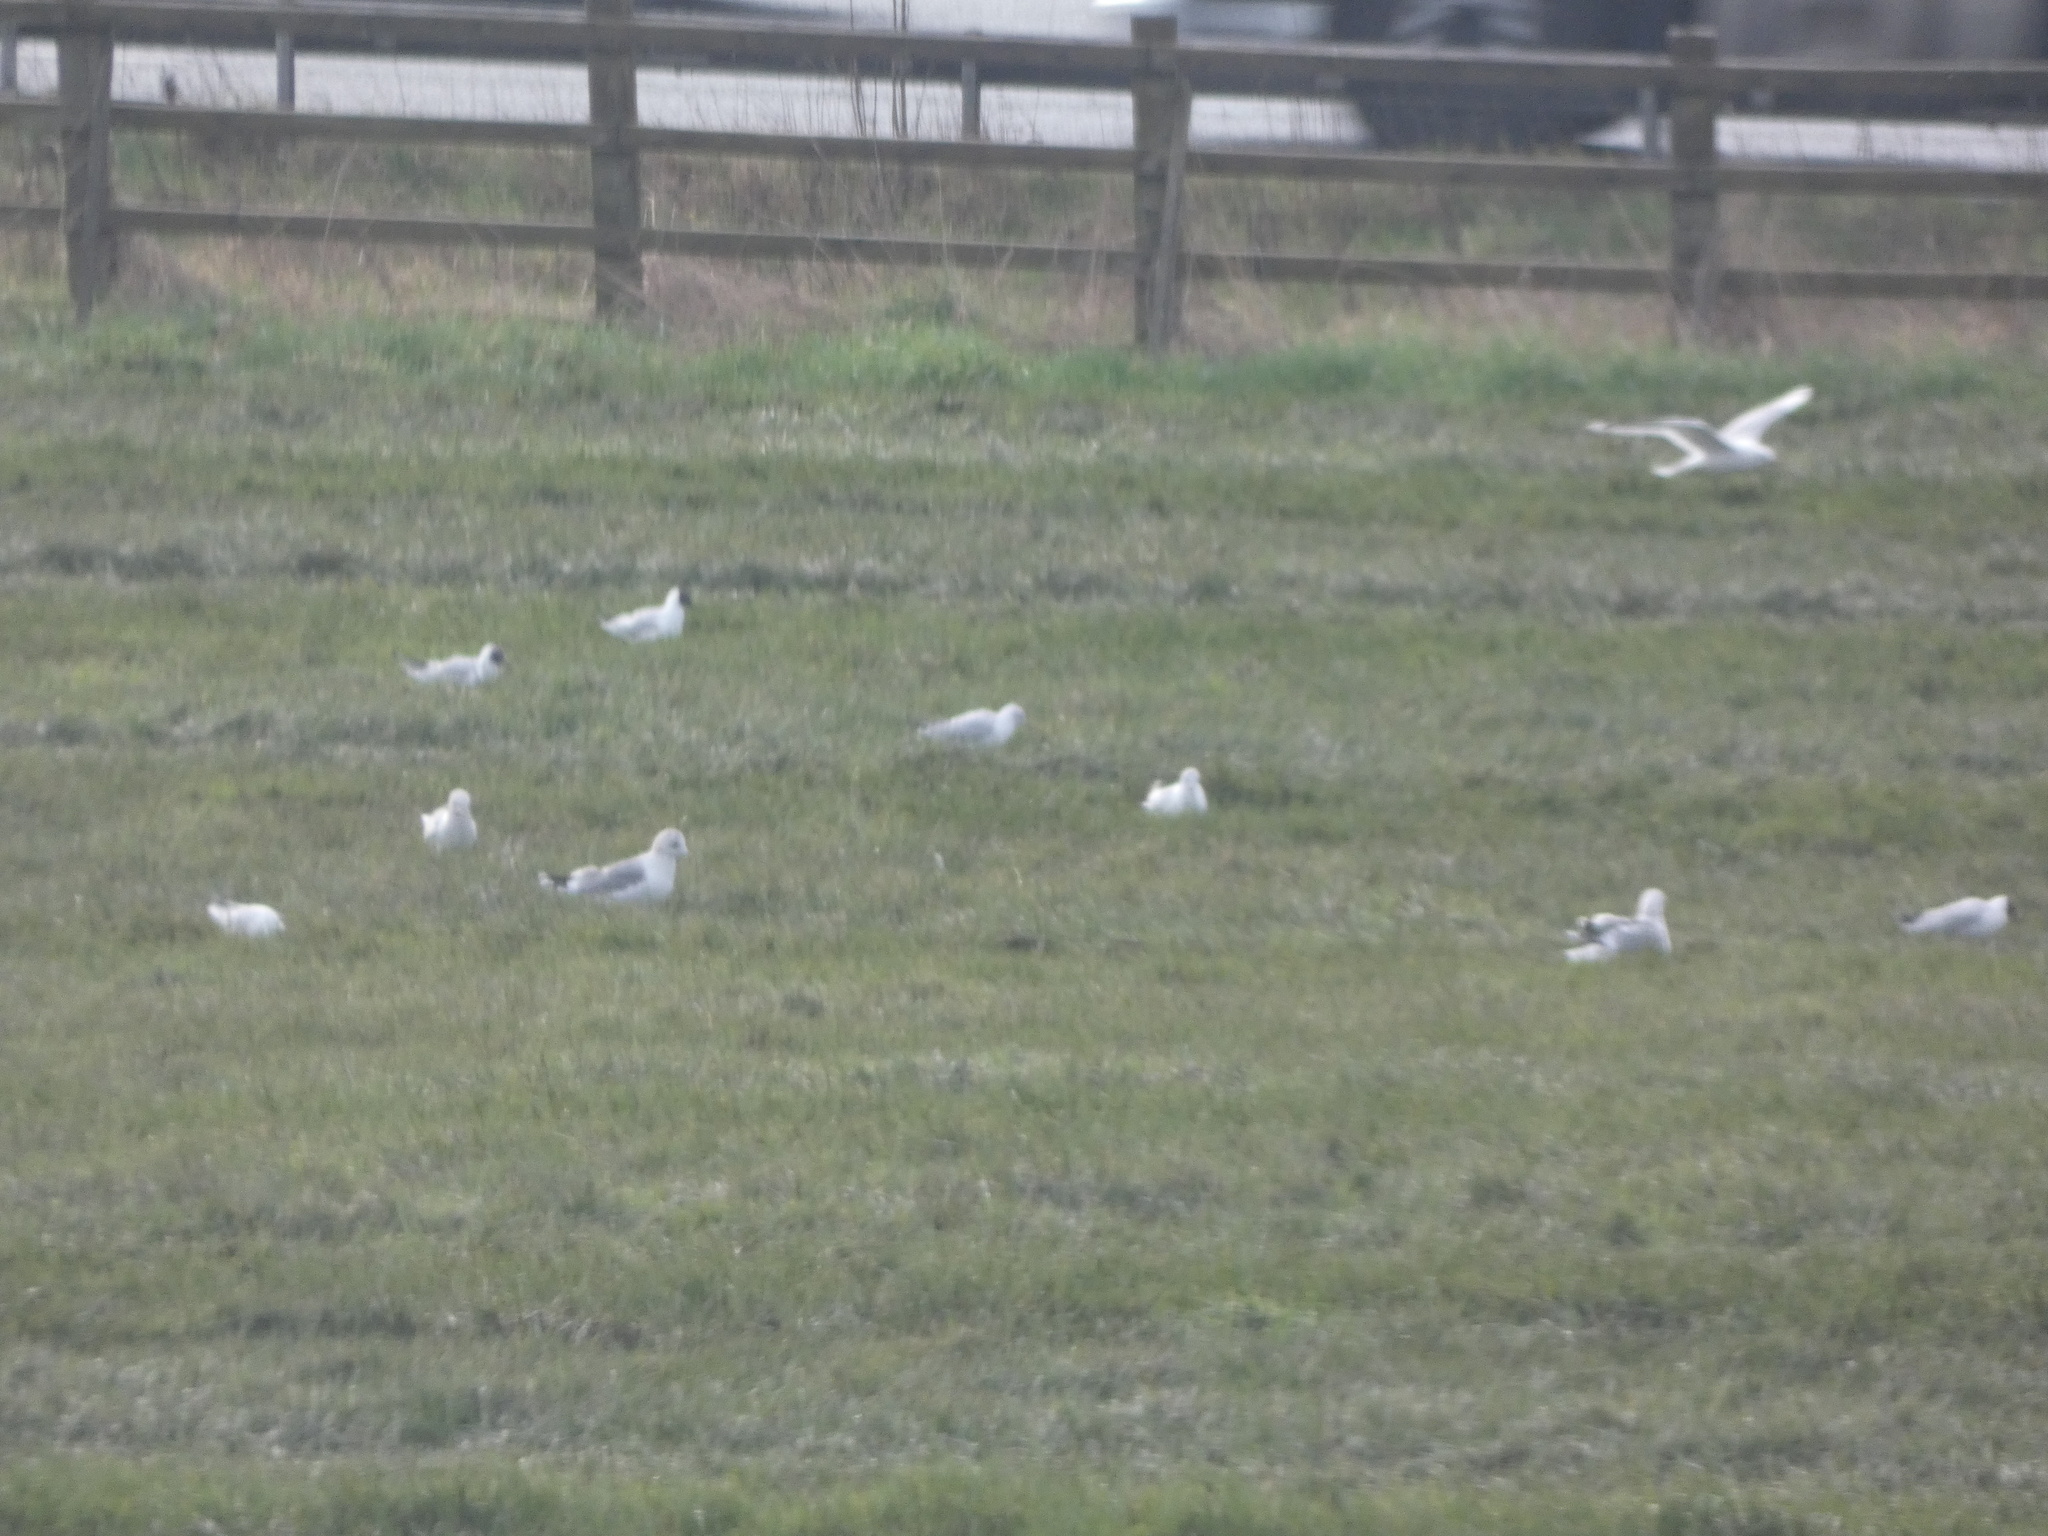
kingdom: Animalia
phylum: Chordata
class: Aves
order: Charadriiformes
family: Laridae
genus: Larus
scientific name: Larus canus
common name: Mew gull
